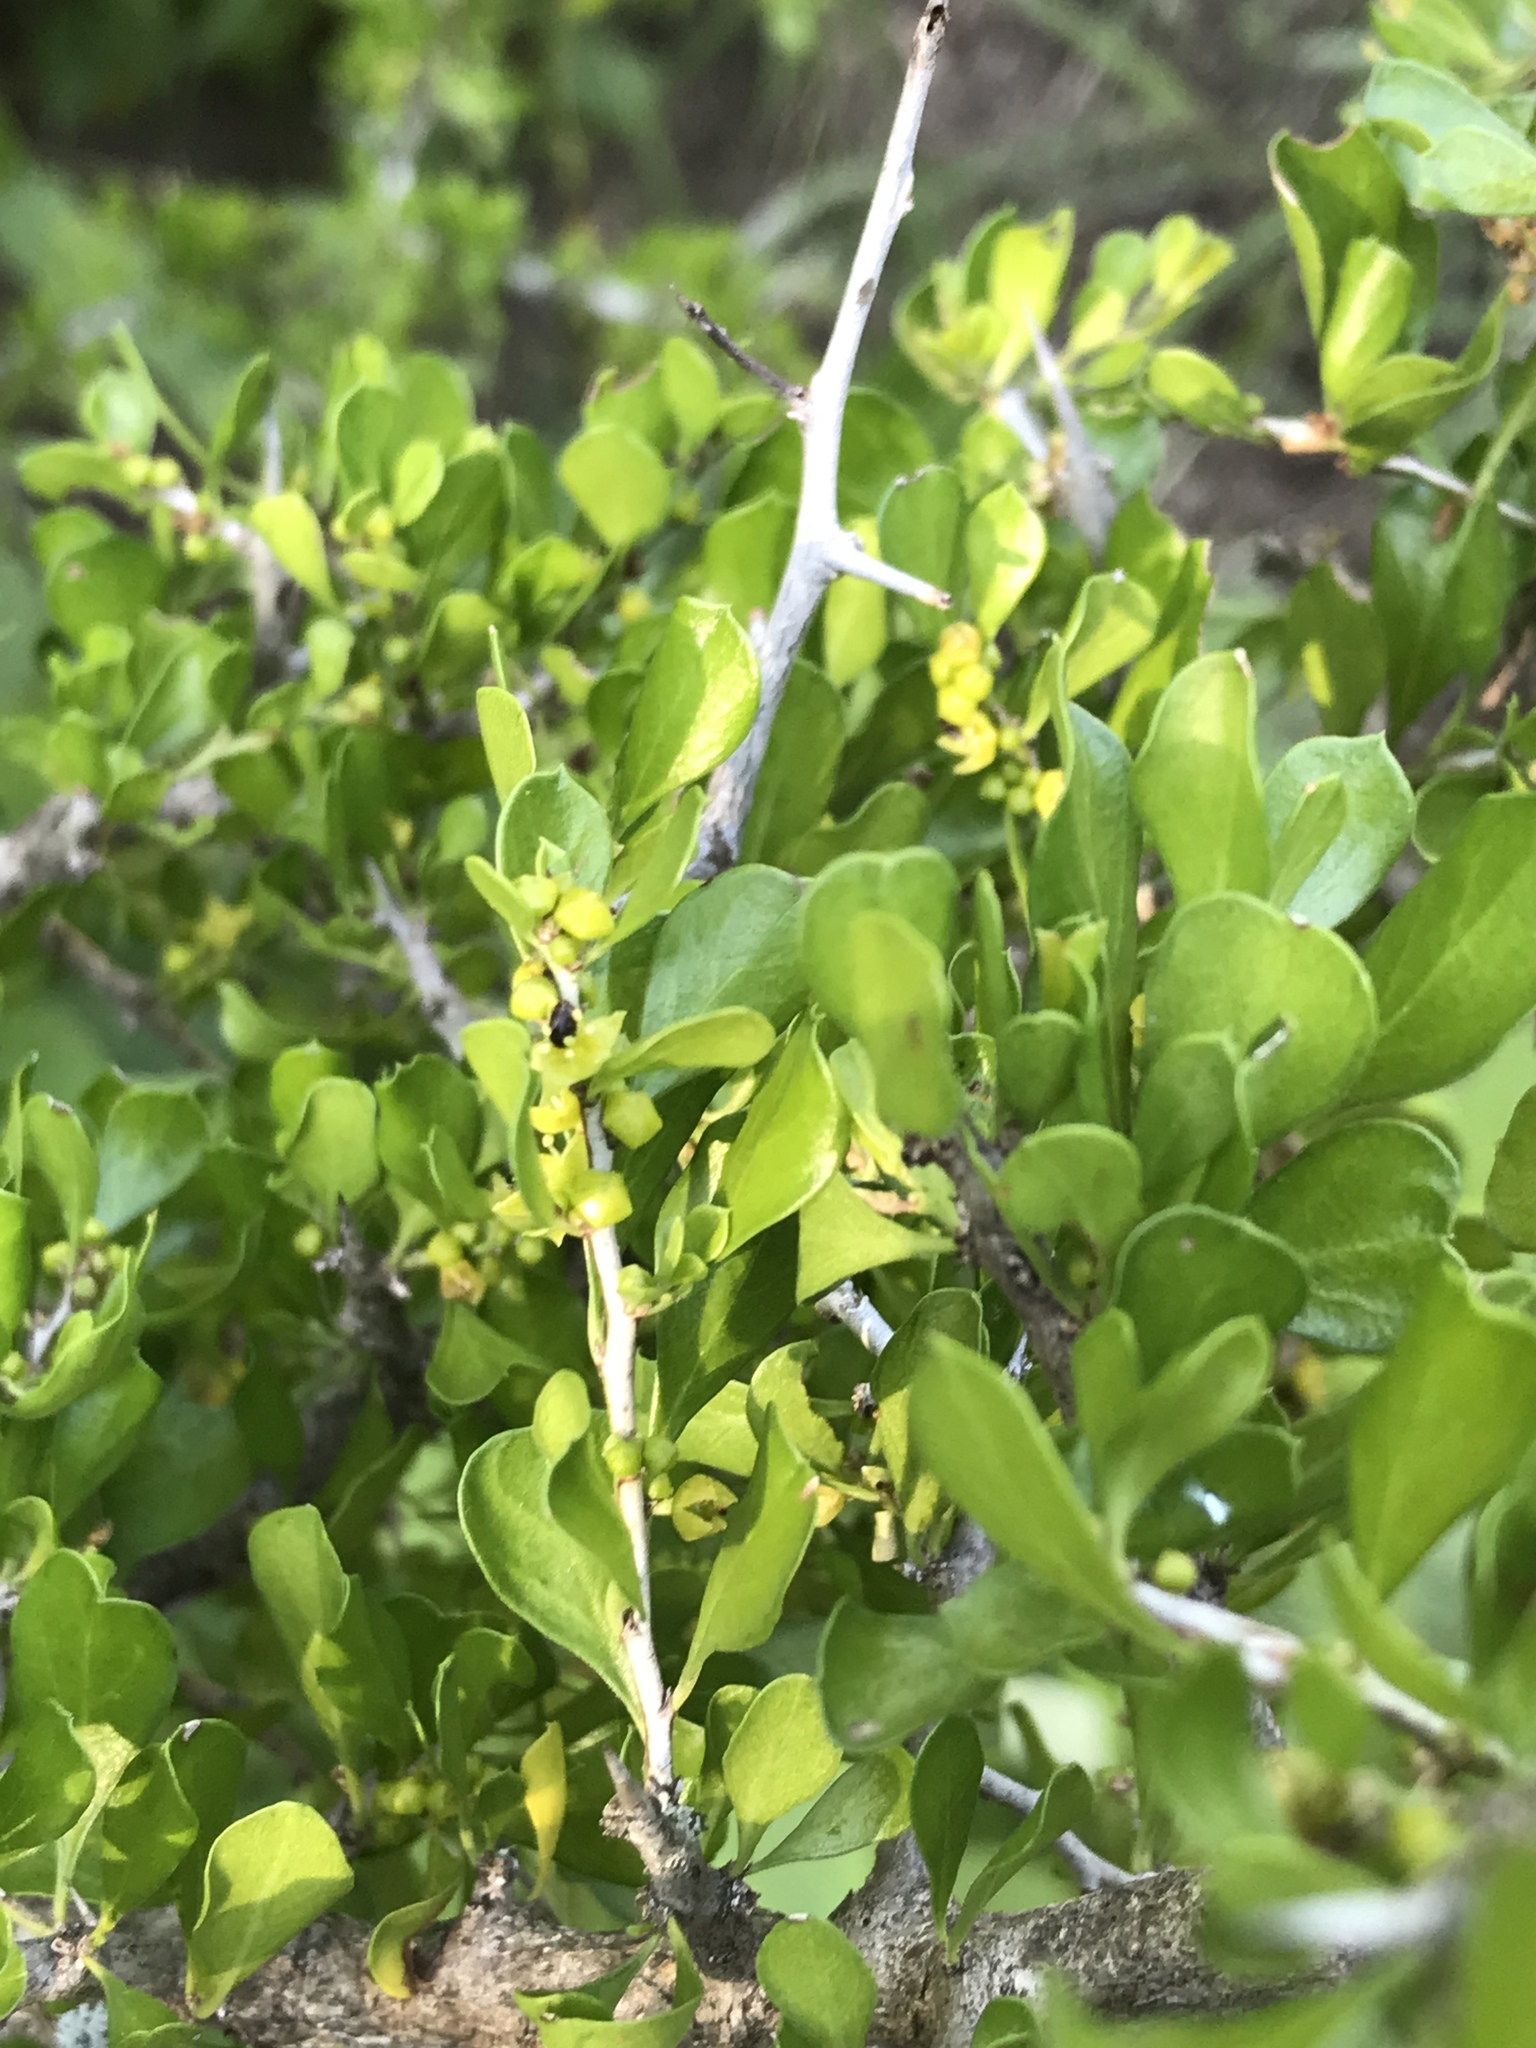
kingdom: Plantae
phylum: Tracheophyta
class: Magnoliopsida
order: Rosales
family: Rhamnaceae
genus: Condalia
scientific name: Condalia hookeri
